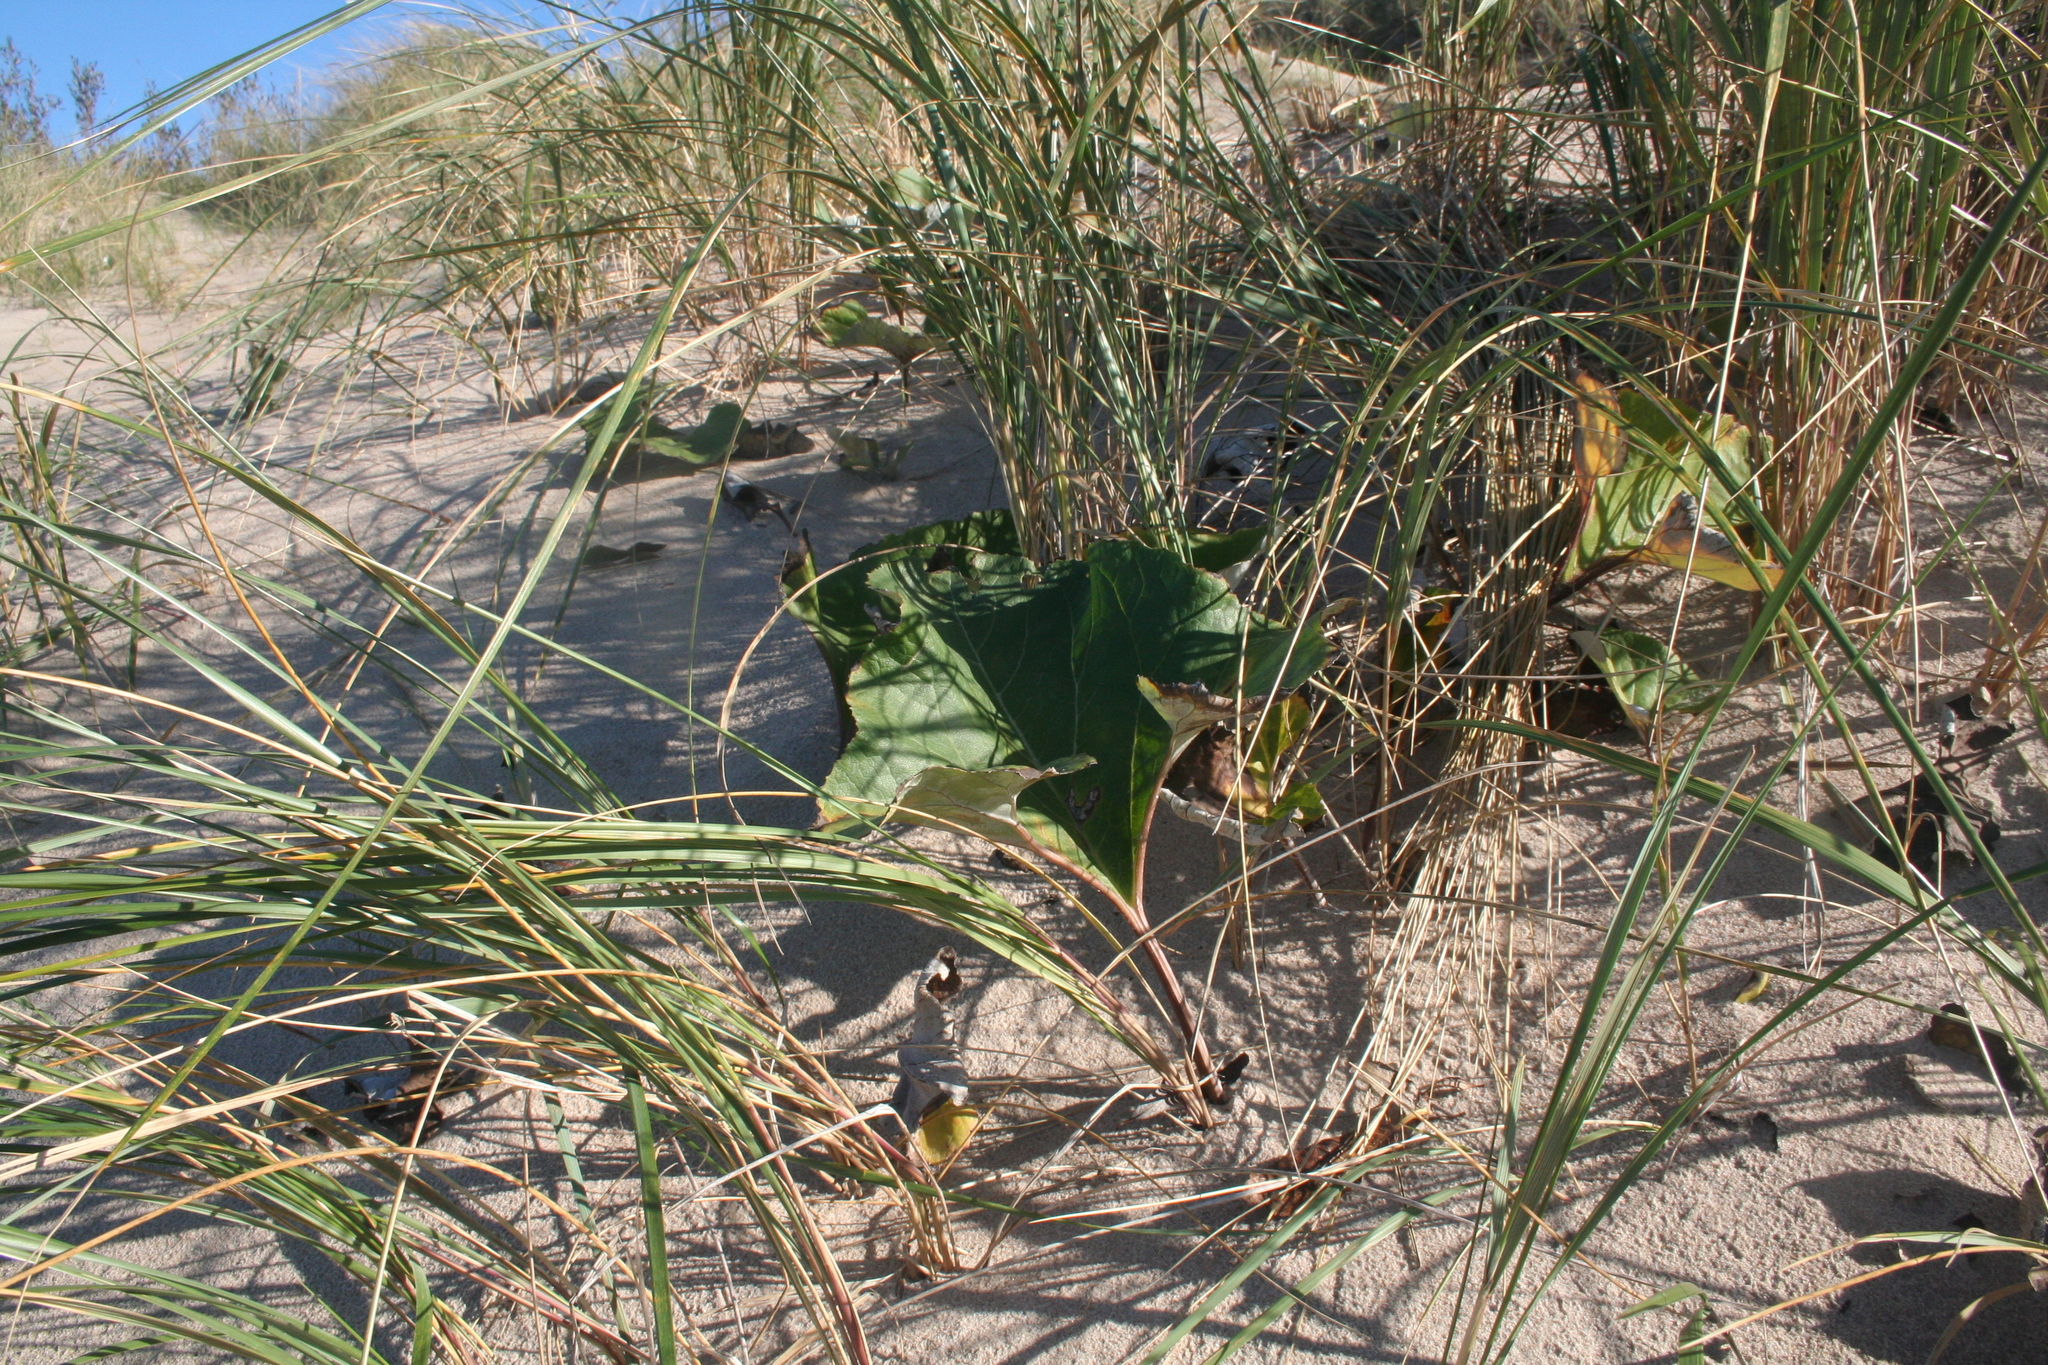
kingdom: Plantae
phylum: Tracheophyta
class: Magnoliopsida
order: Asterales
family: Asteraceae
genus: Petasites
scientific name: Petasites spurius
